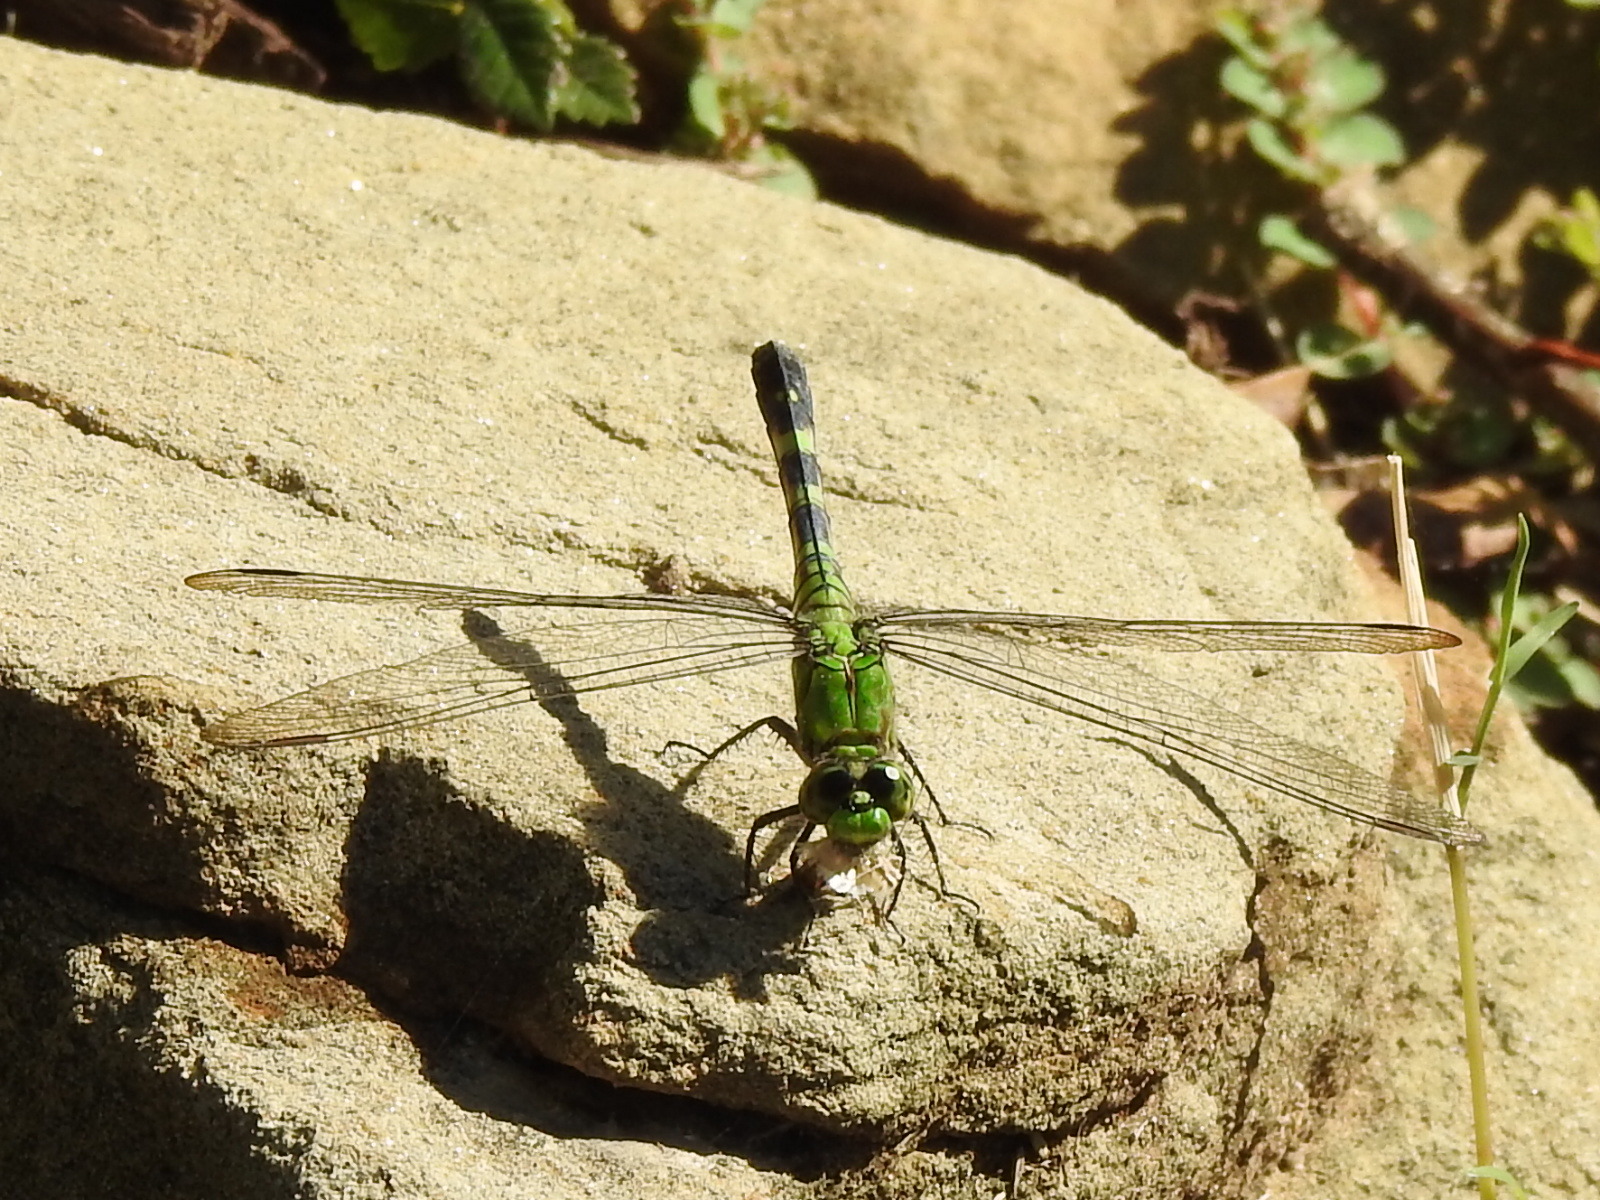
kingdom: Animalia
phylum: Arthropoda
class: Insecta
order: Odonata
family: Libellulidae
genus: Erythemis
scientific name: Erythemis simplicicollis
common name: Eastern pondhawk
